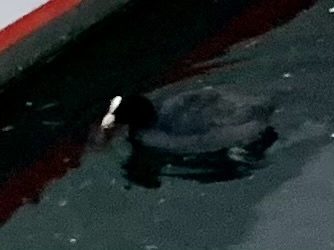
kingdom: Animalia
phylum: Chordata
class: Aves
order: Gruiformes
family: Rallidae
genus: Fulica
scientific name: Fulica atra
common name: Eurasian coot
